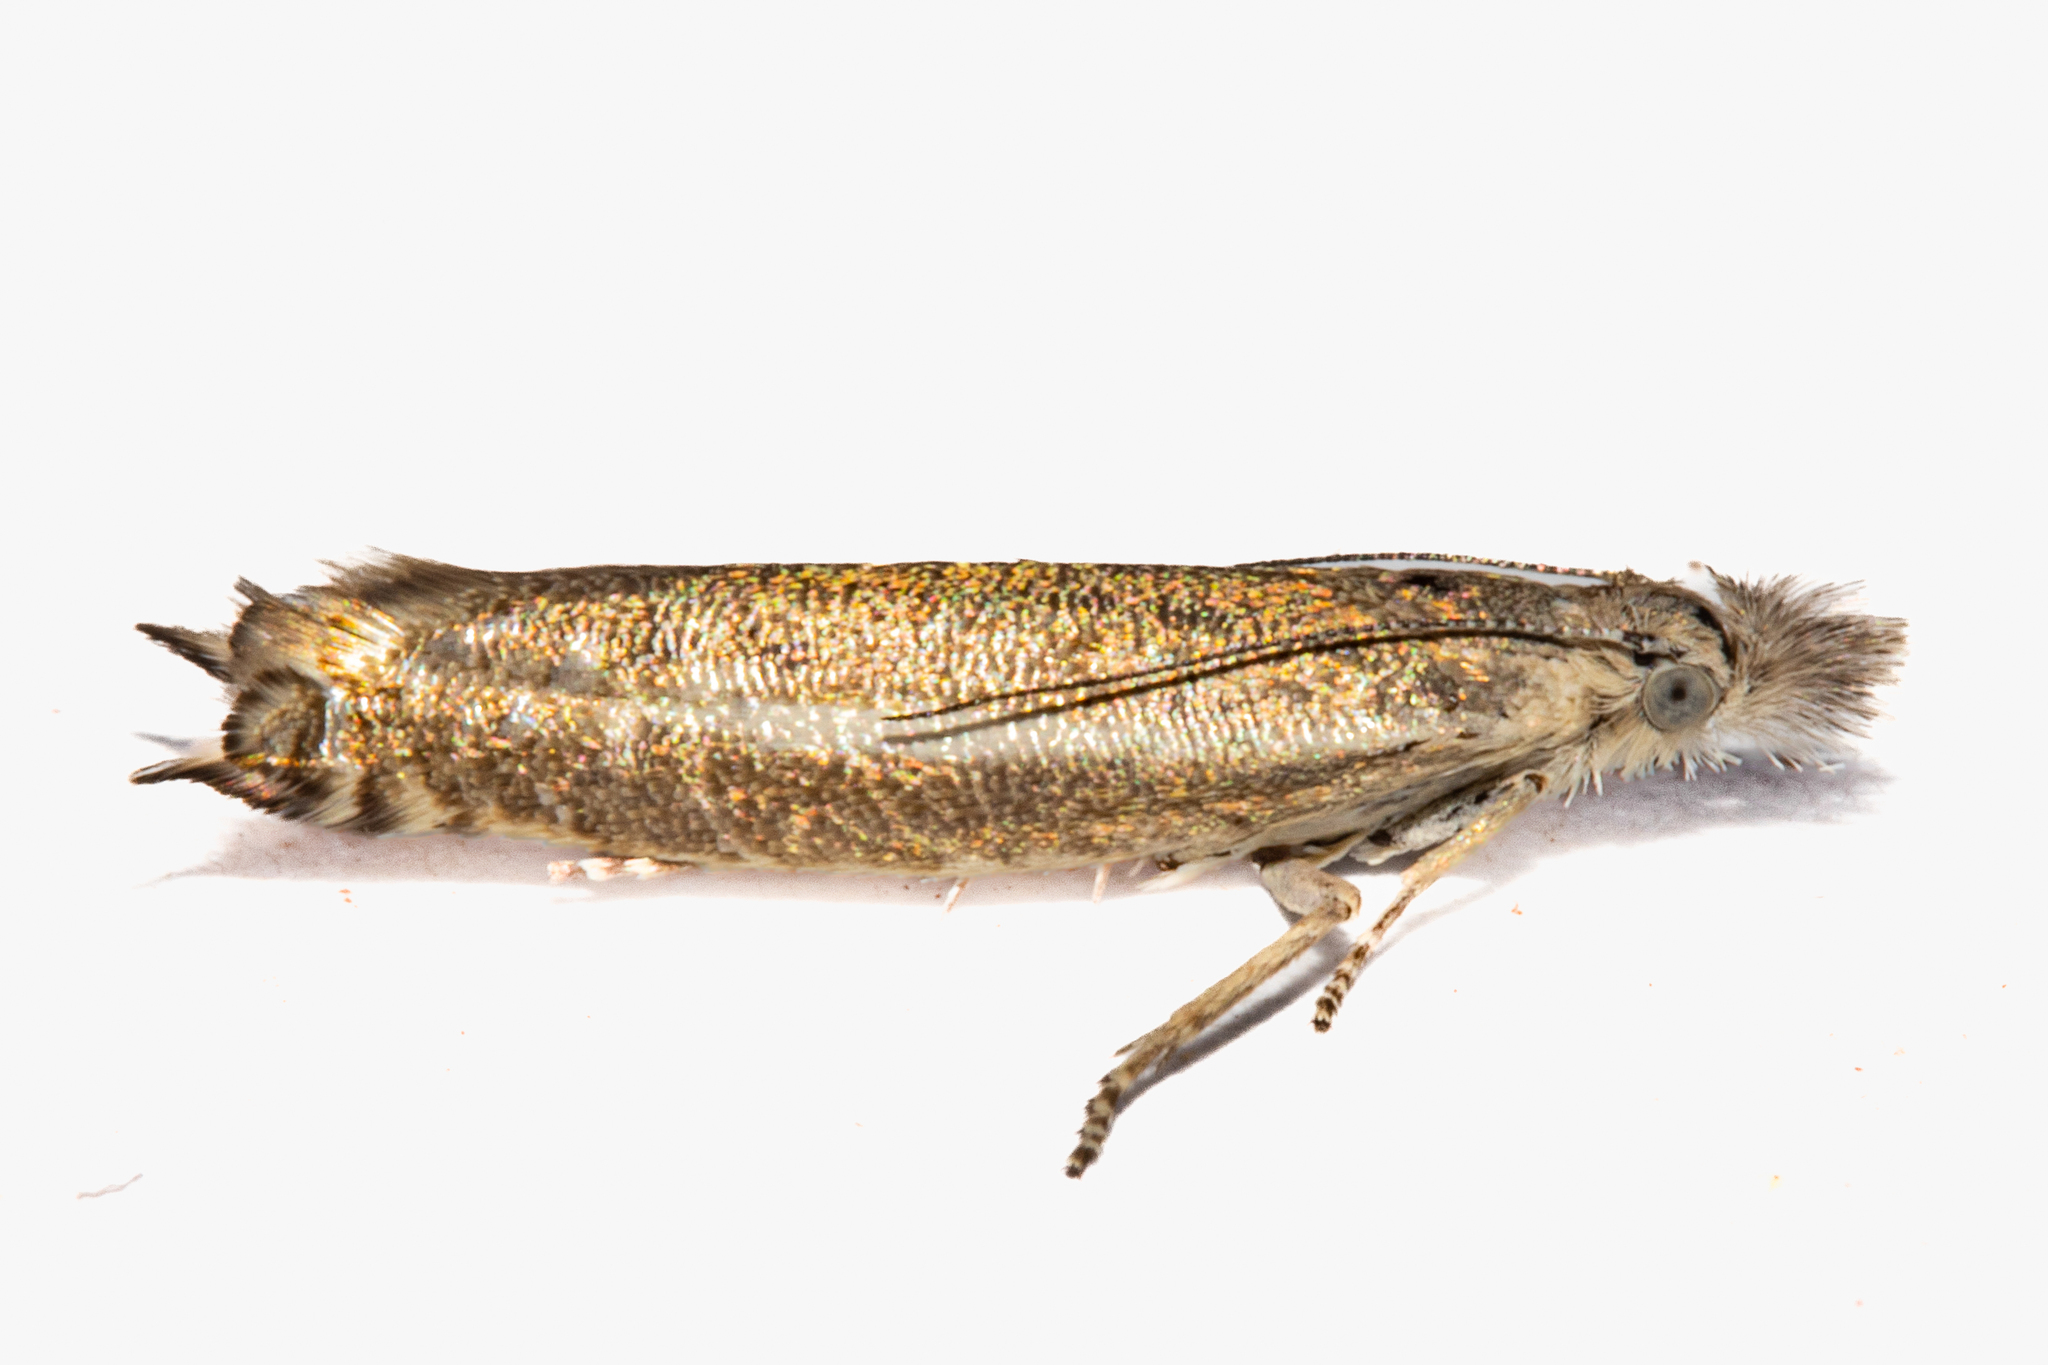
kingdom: Animalia
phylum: Arthropoda
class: Insecta
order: Lepidoptera
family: Glyphipterigidae
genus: Glyphipterix
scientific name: Glyphipterix barbata
